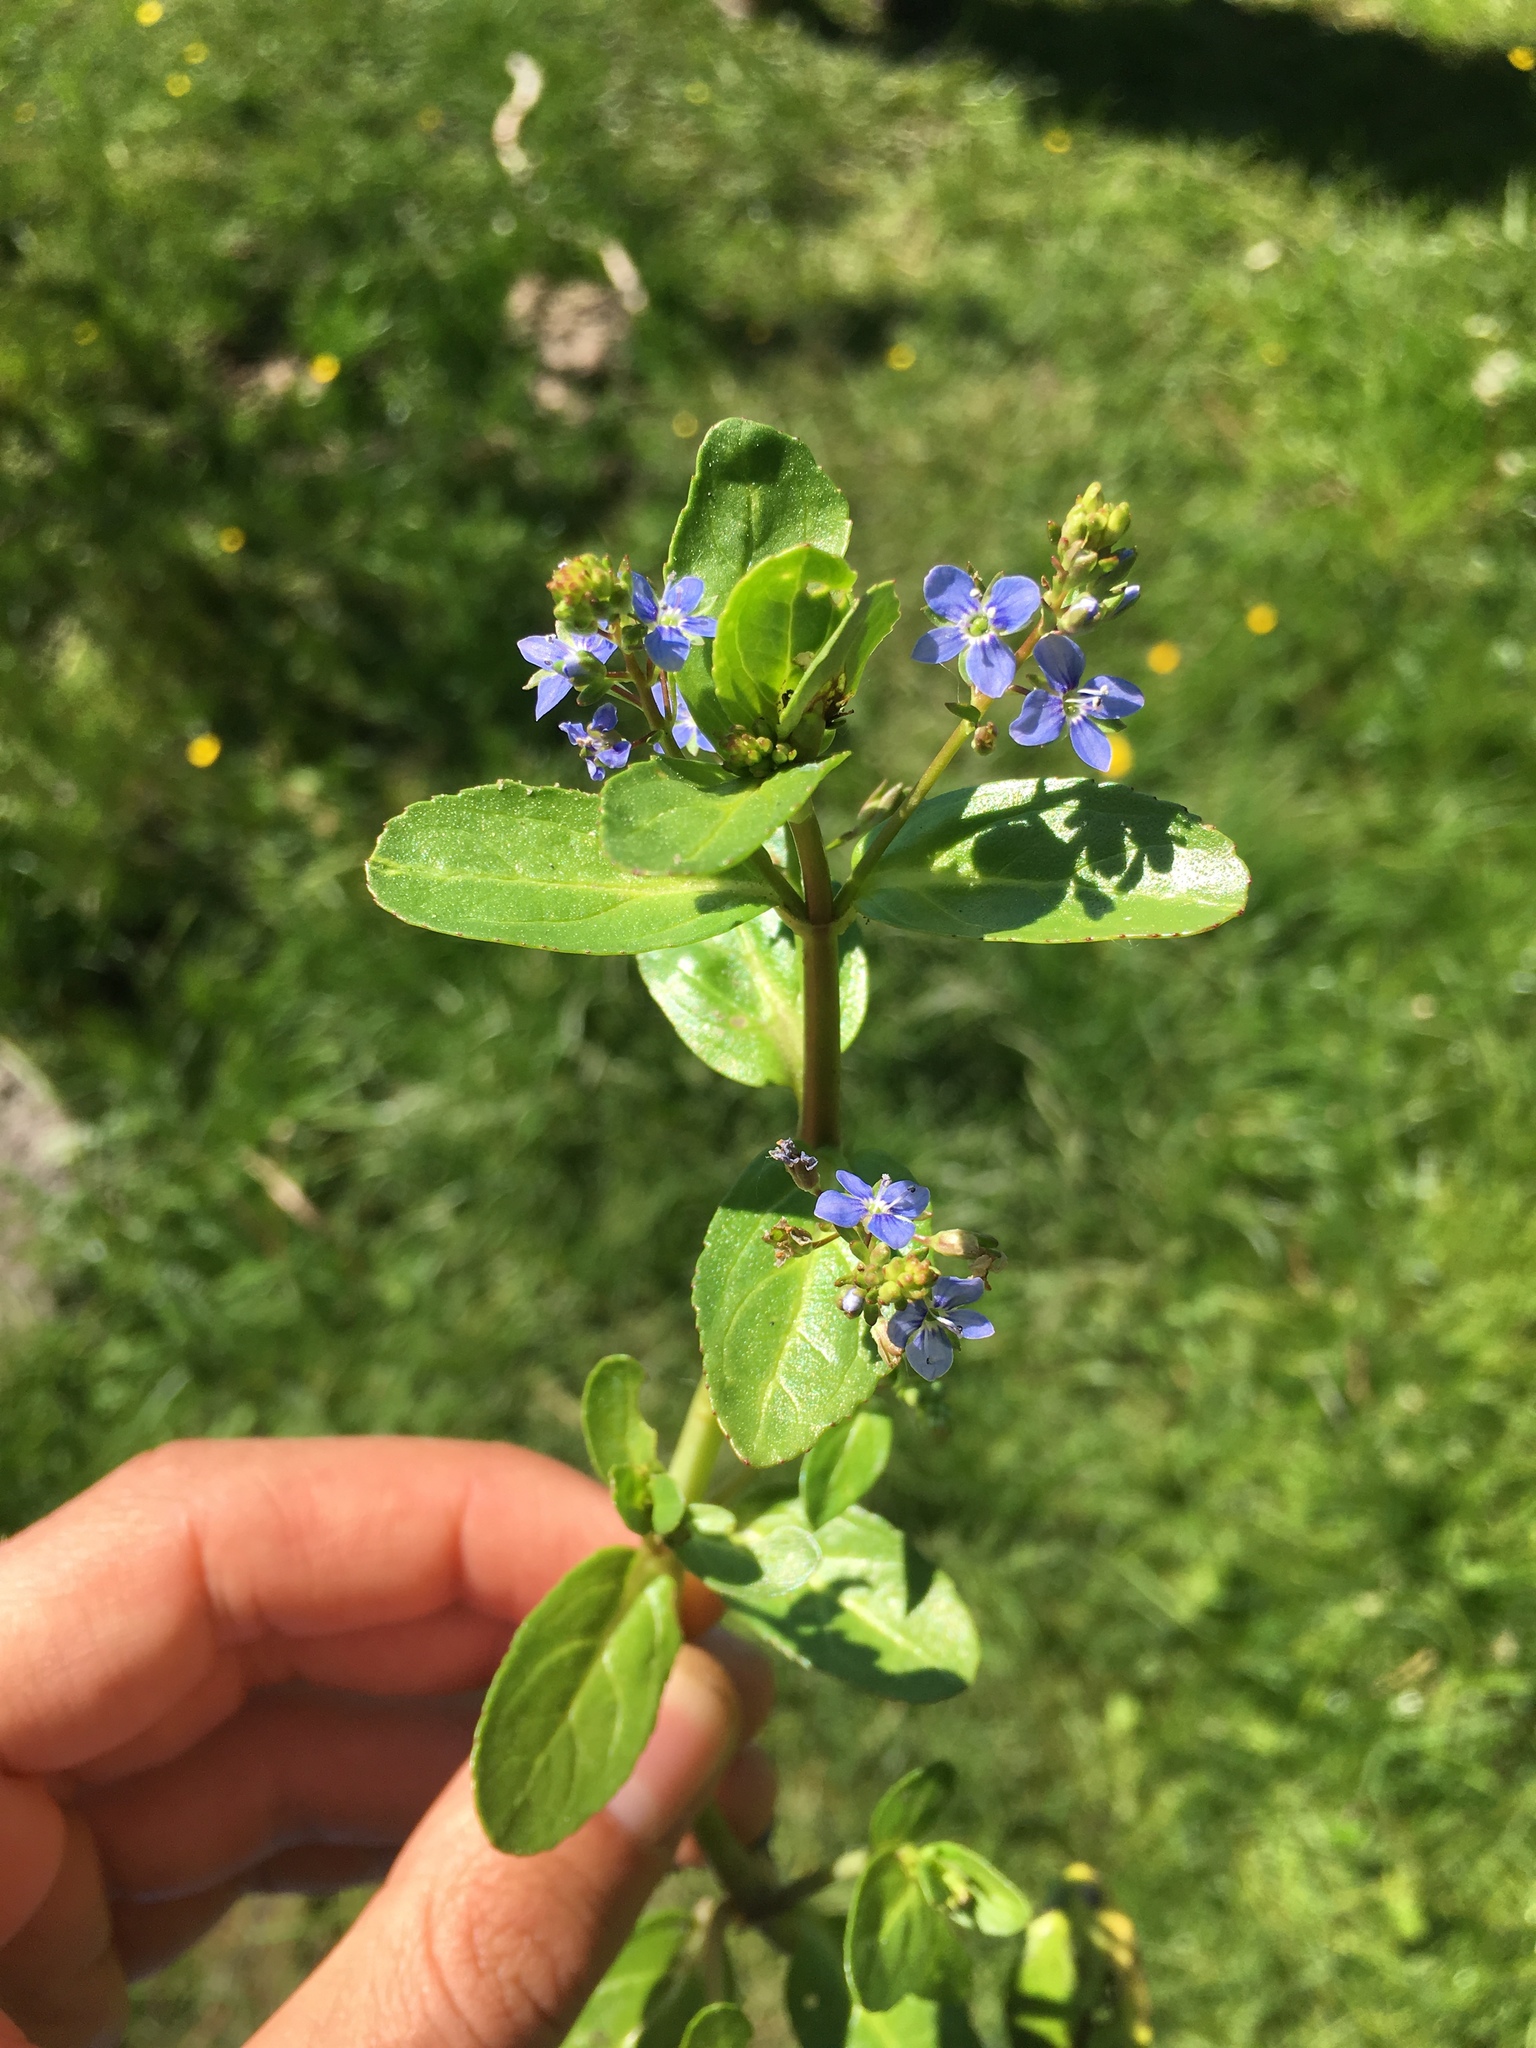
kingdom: Plantae
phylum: Tracheophyta
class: Magnoliopsida
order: Lamiales
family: Plantaginaceae
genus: Veronica
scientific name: Veronica beccabunga
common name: Brooklime
